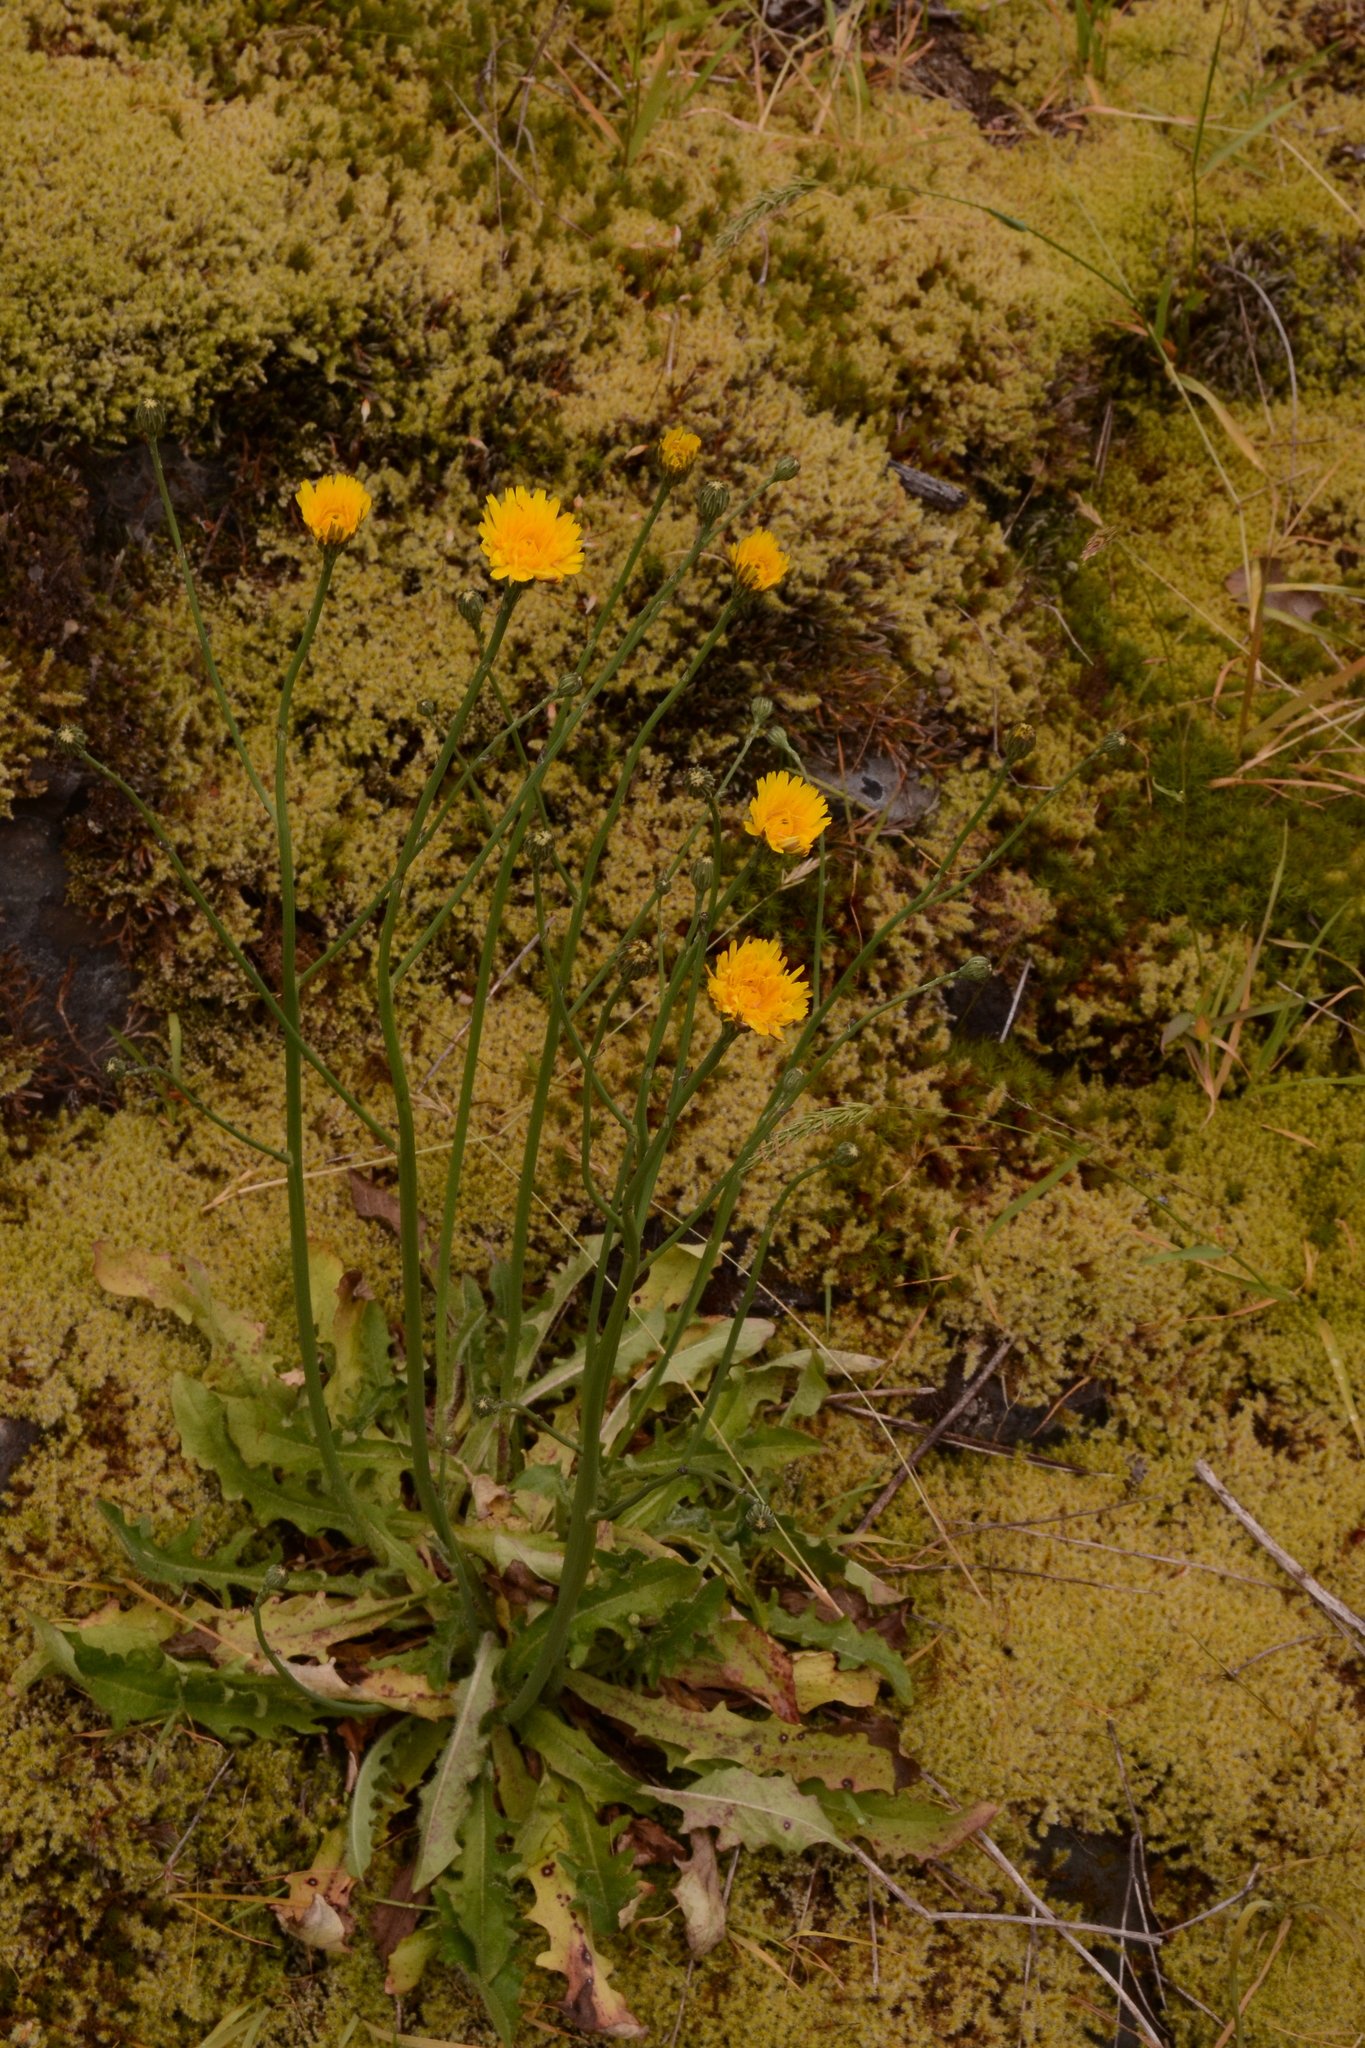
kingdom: Plantae
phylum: Tracheophyta
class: Magnoliopsida
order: Asterales
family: Asteraceae
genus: Hypochaeris
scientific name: Hypochaeris radicata
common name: Flatweed
